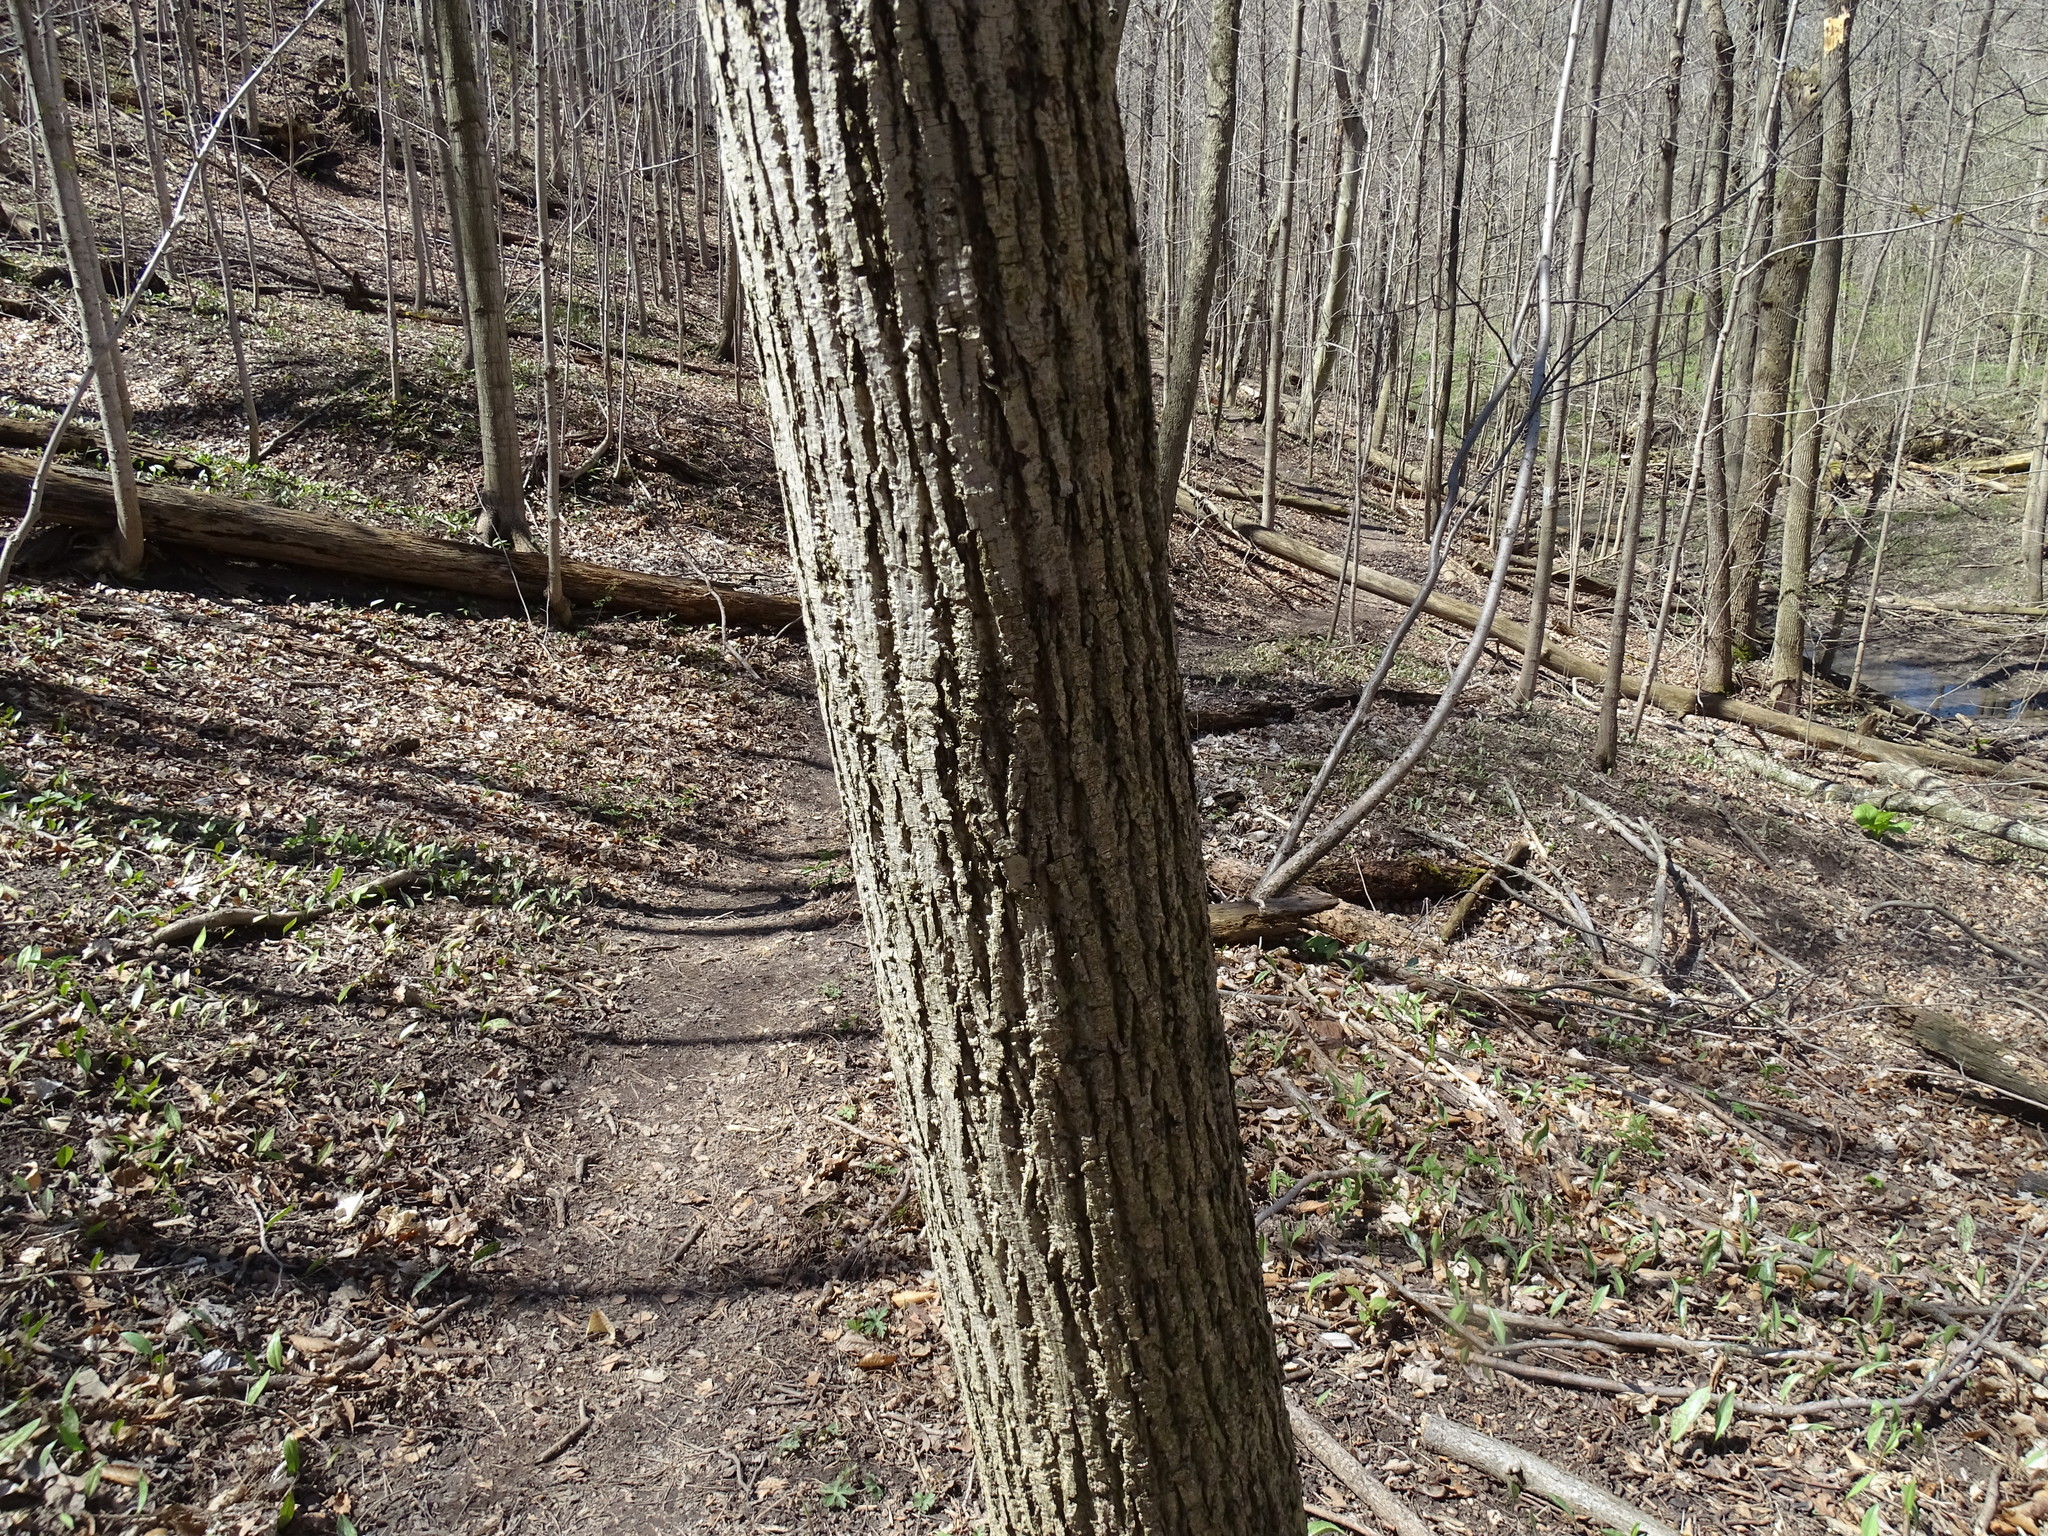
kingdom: Plantae
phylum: Tracheophyta
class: Magnoliopsida
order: Malvales
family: Malvaceae
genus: Tilia
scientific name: Tilia americana
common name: Basswood
